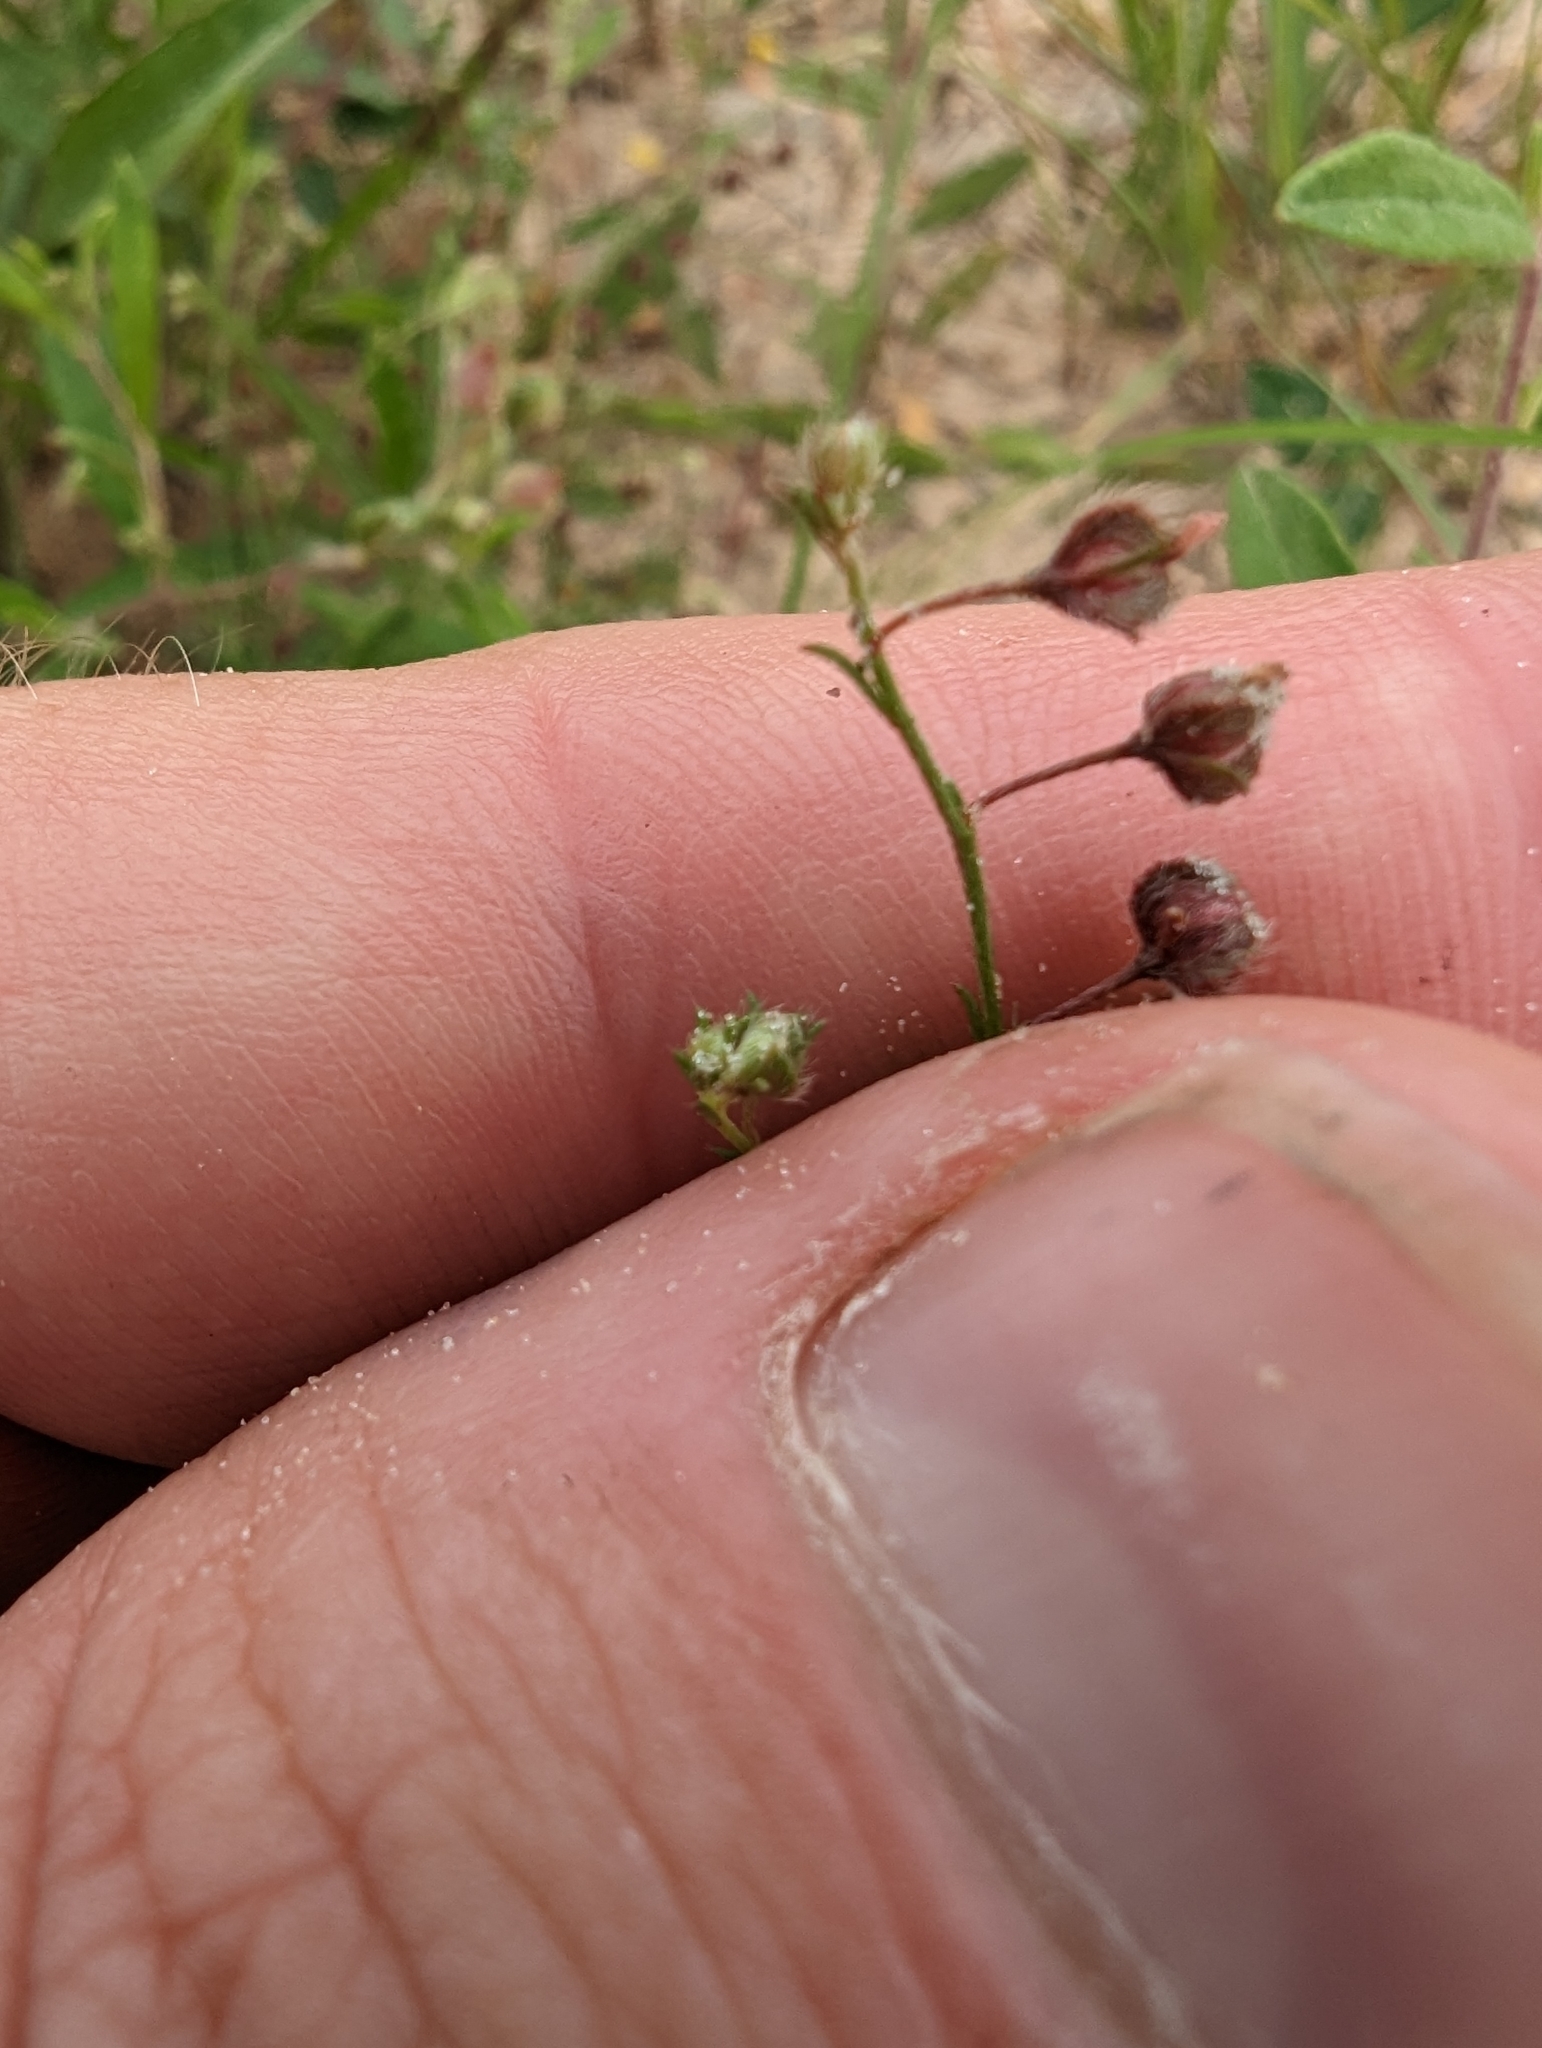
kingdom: Plantae
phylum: Tracheophyta
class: Magnoliopsida
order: Malvales
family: Cistaceae
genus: Lechea
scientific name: Lechea san-sabeana
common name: San saba pinweed
